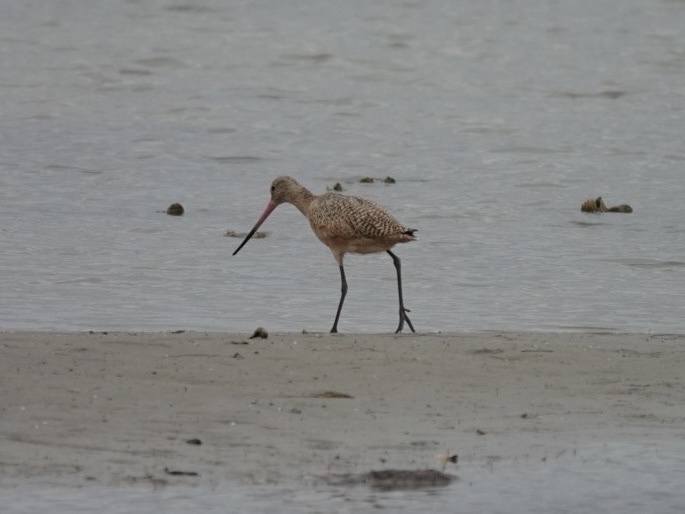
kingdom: Animalia
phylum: Chordata
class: Aves
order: Charadriiformes
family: Scolopacidae
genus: Limosa
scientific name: Limosa fedoa
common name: Marbled godwit
